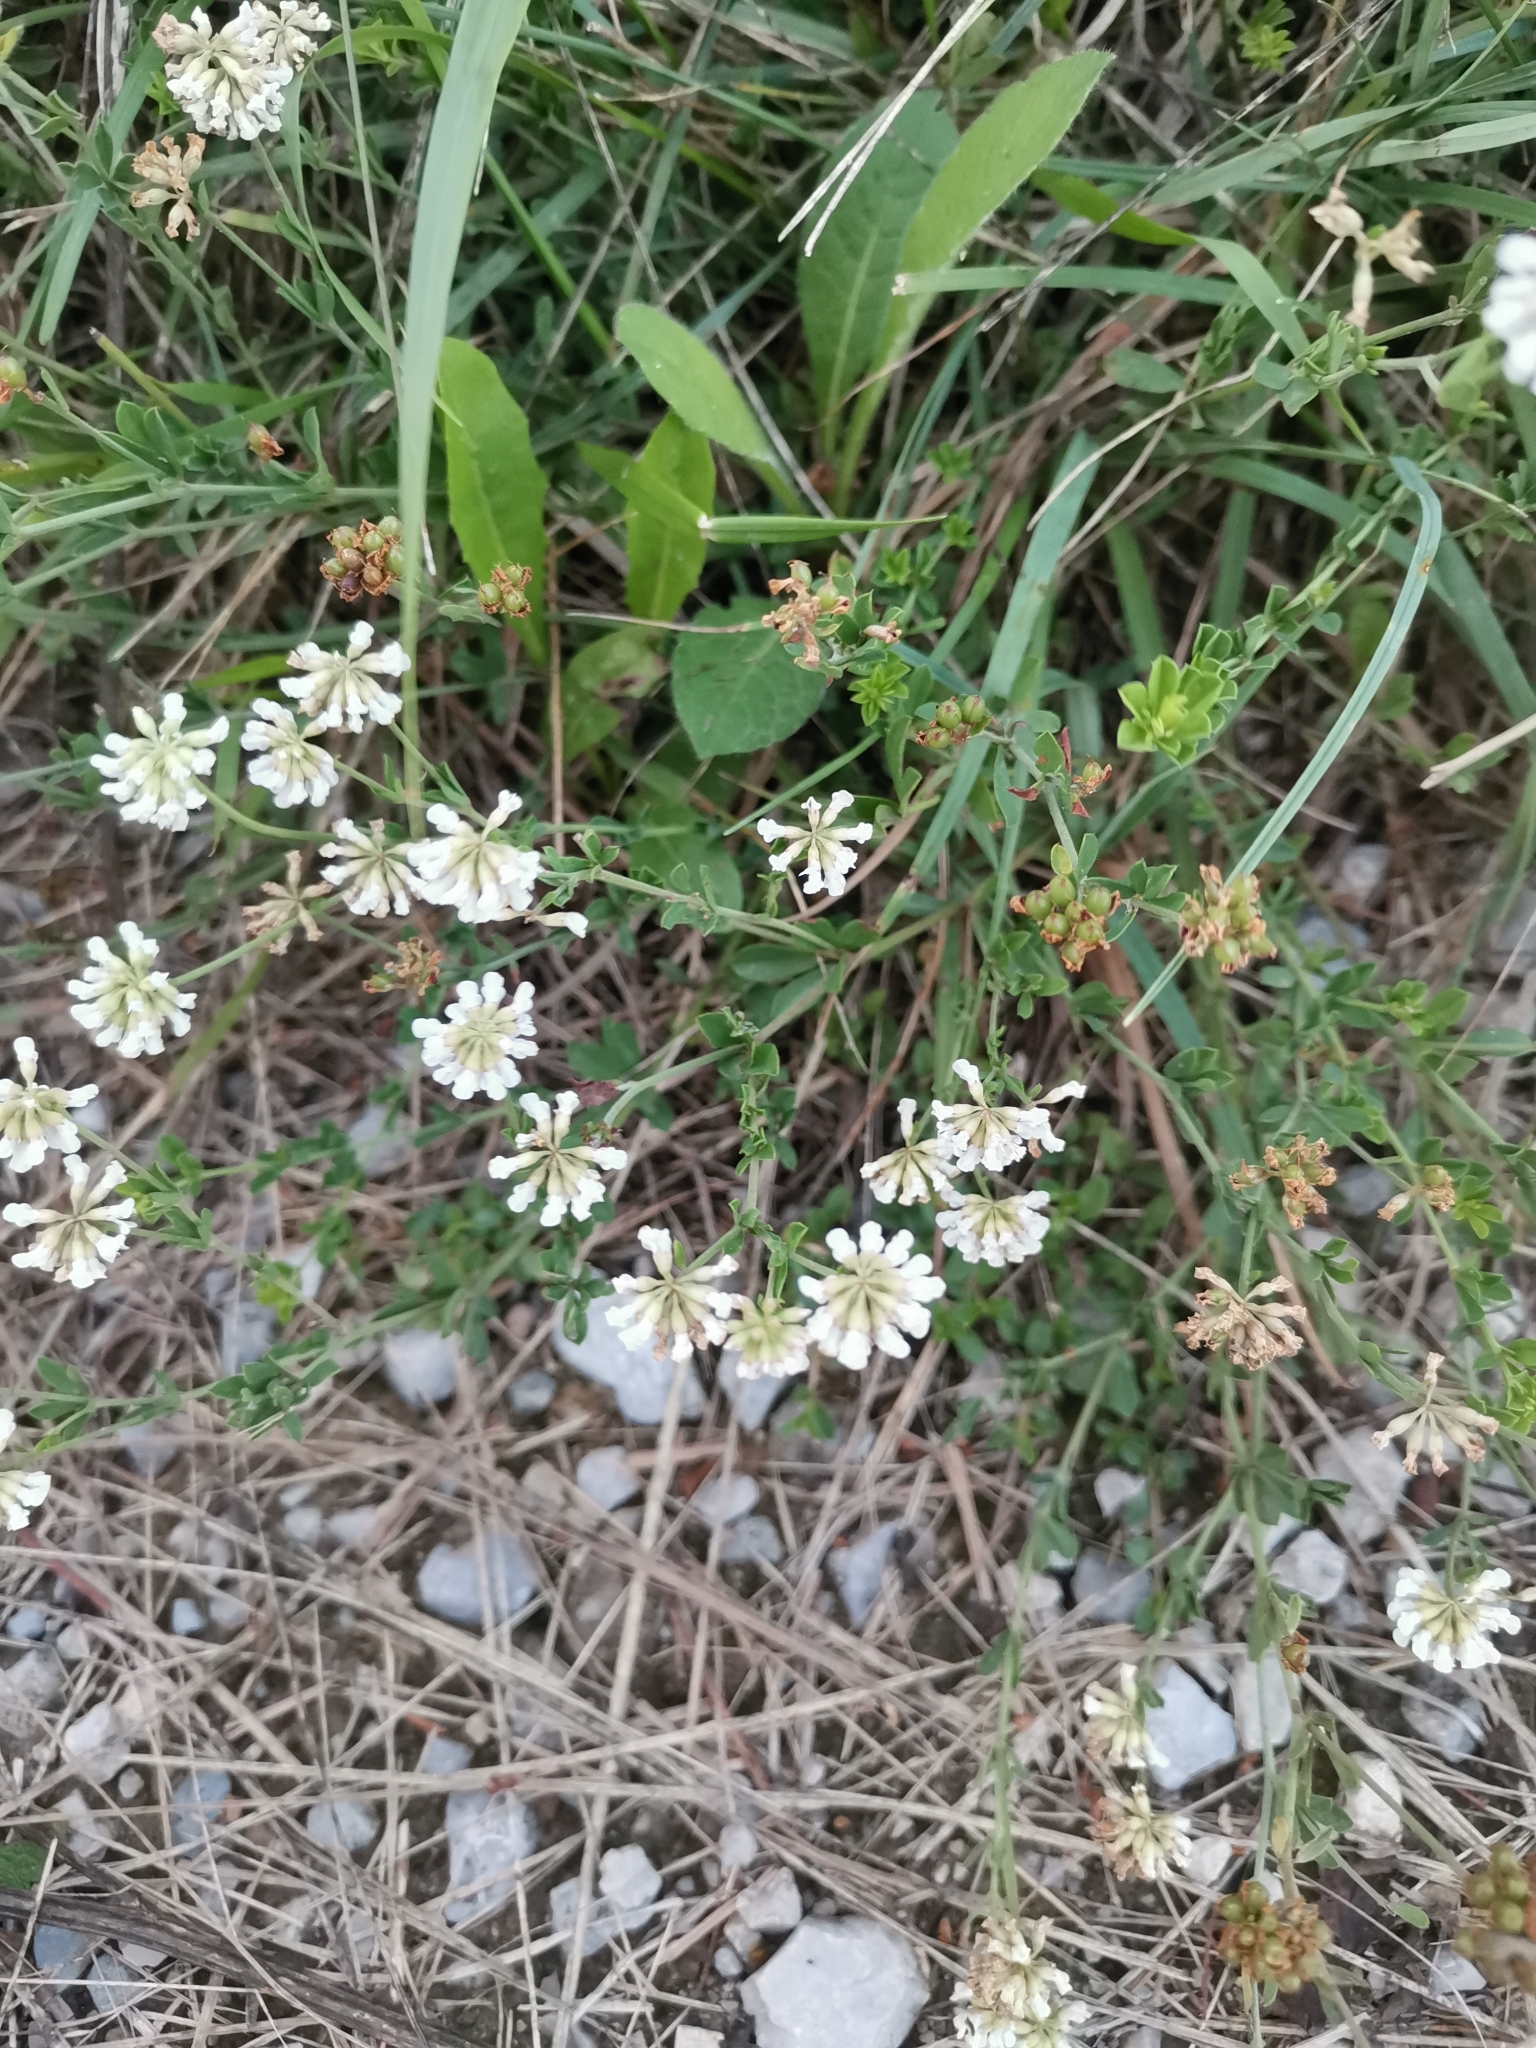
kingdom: Plantae
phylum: Tracheophyta
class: Magnoliopsida
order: Fabales
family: Fabaceae
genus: Lotus
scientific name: Lotus herbaceus
